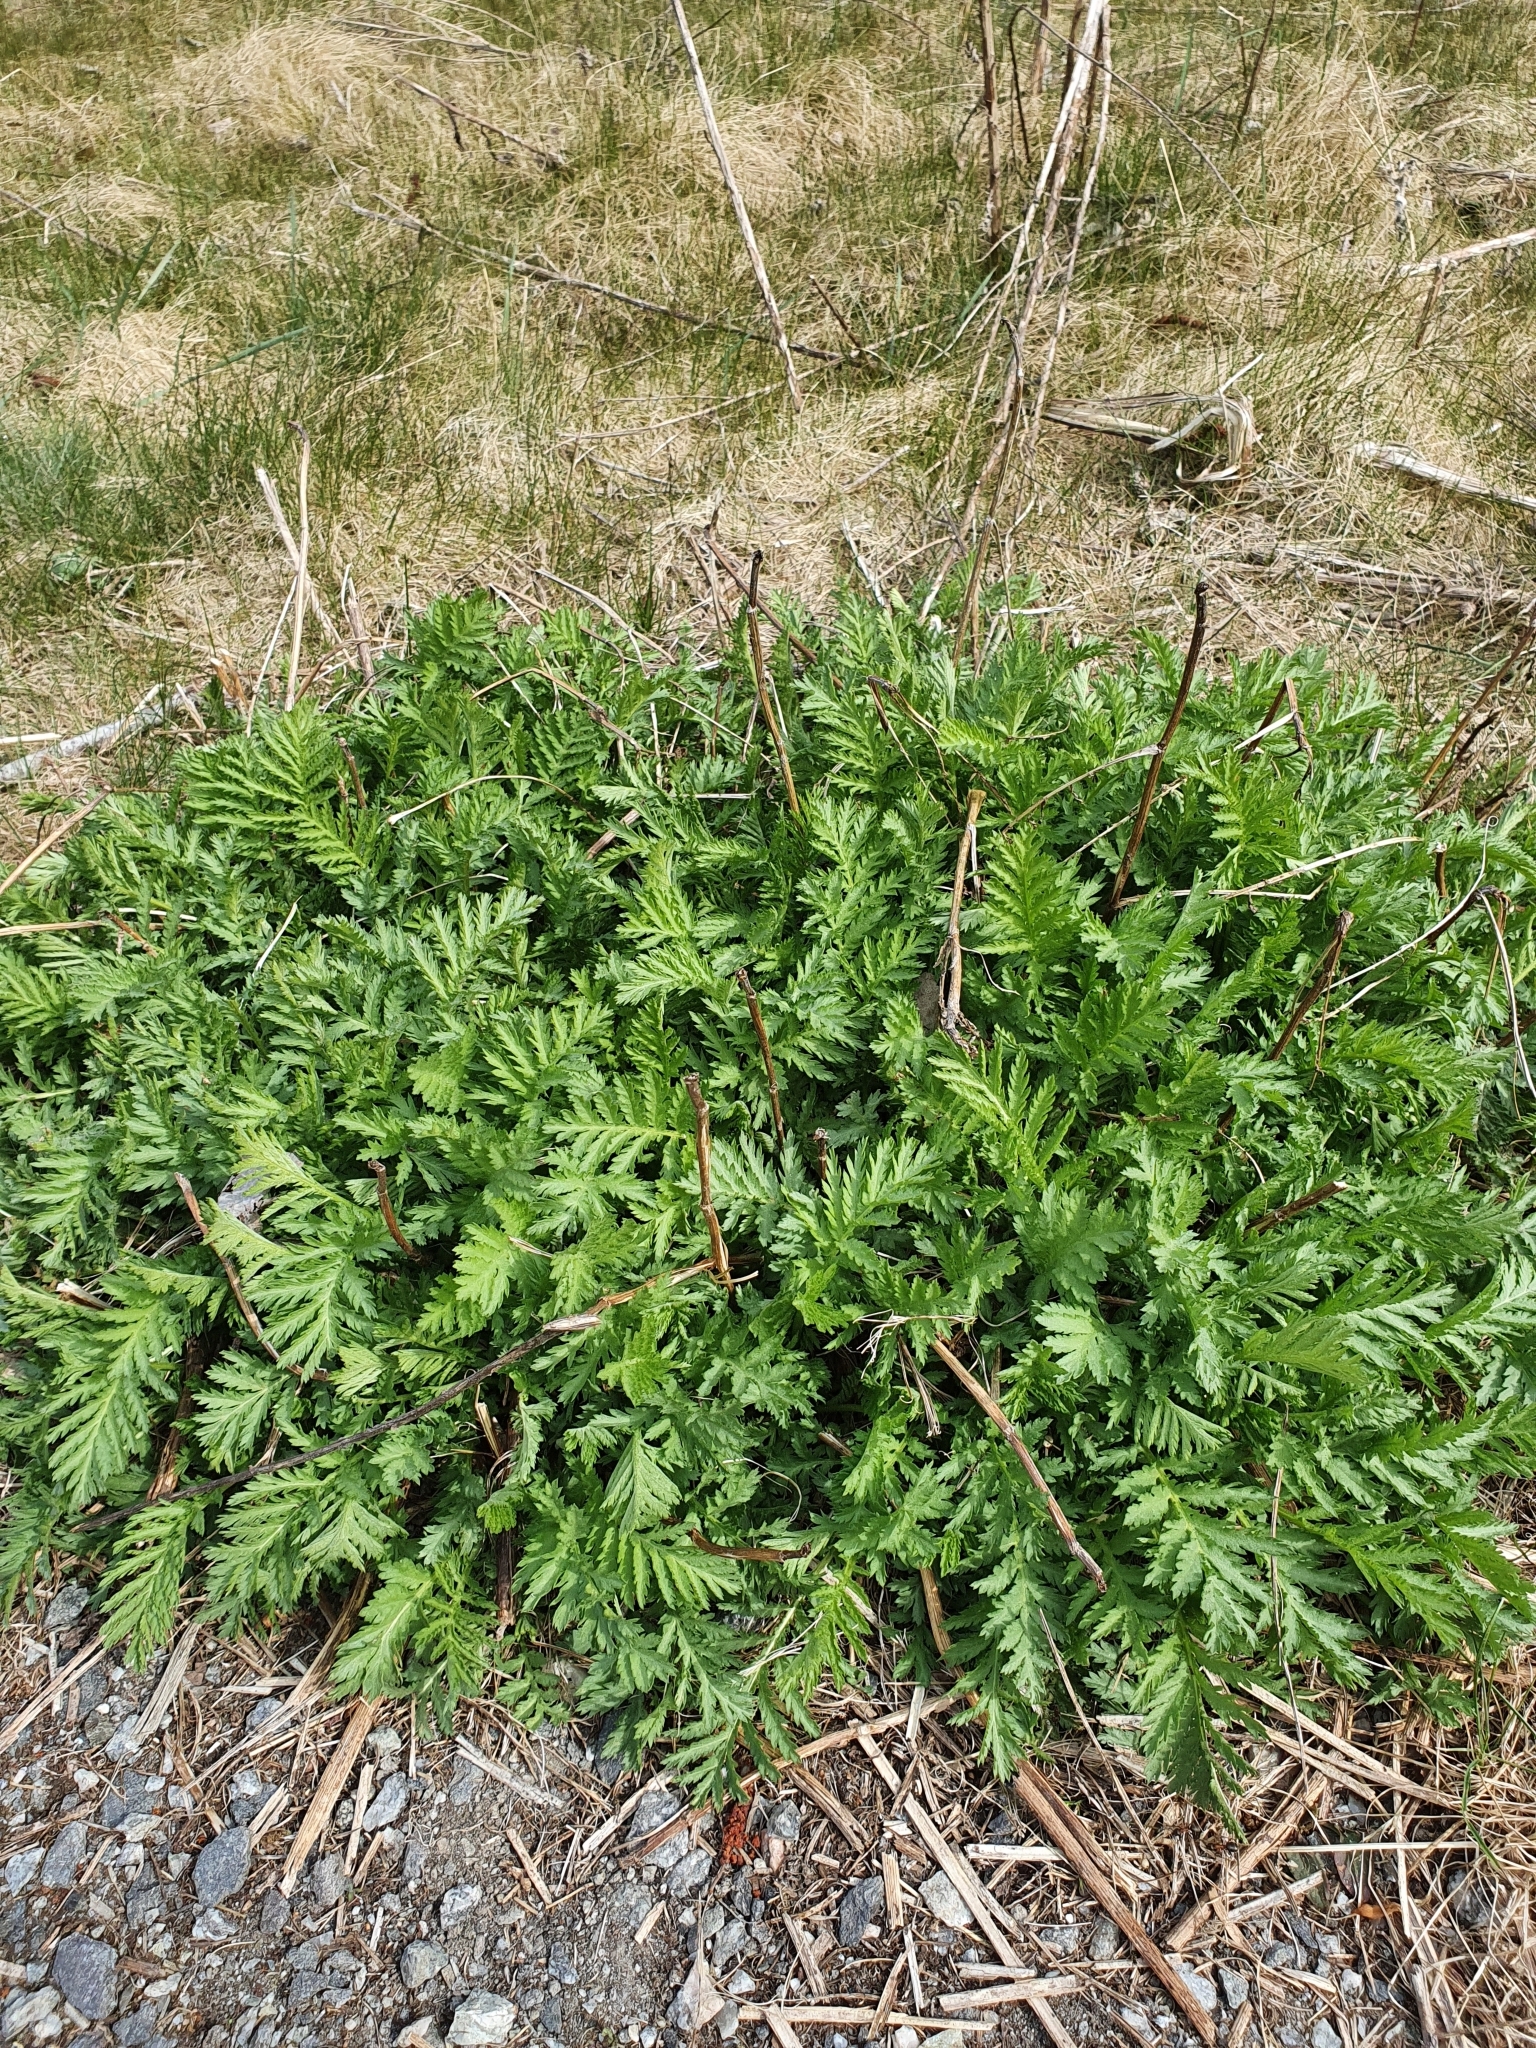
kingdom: Plantae
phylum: Tracheophyta
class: Magnoliopsida
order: Asterales
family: Asteraceae
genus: Tanacetum
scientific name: Tanacetum vulgare
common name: Common tansy
